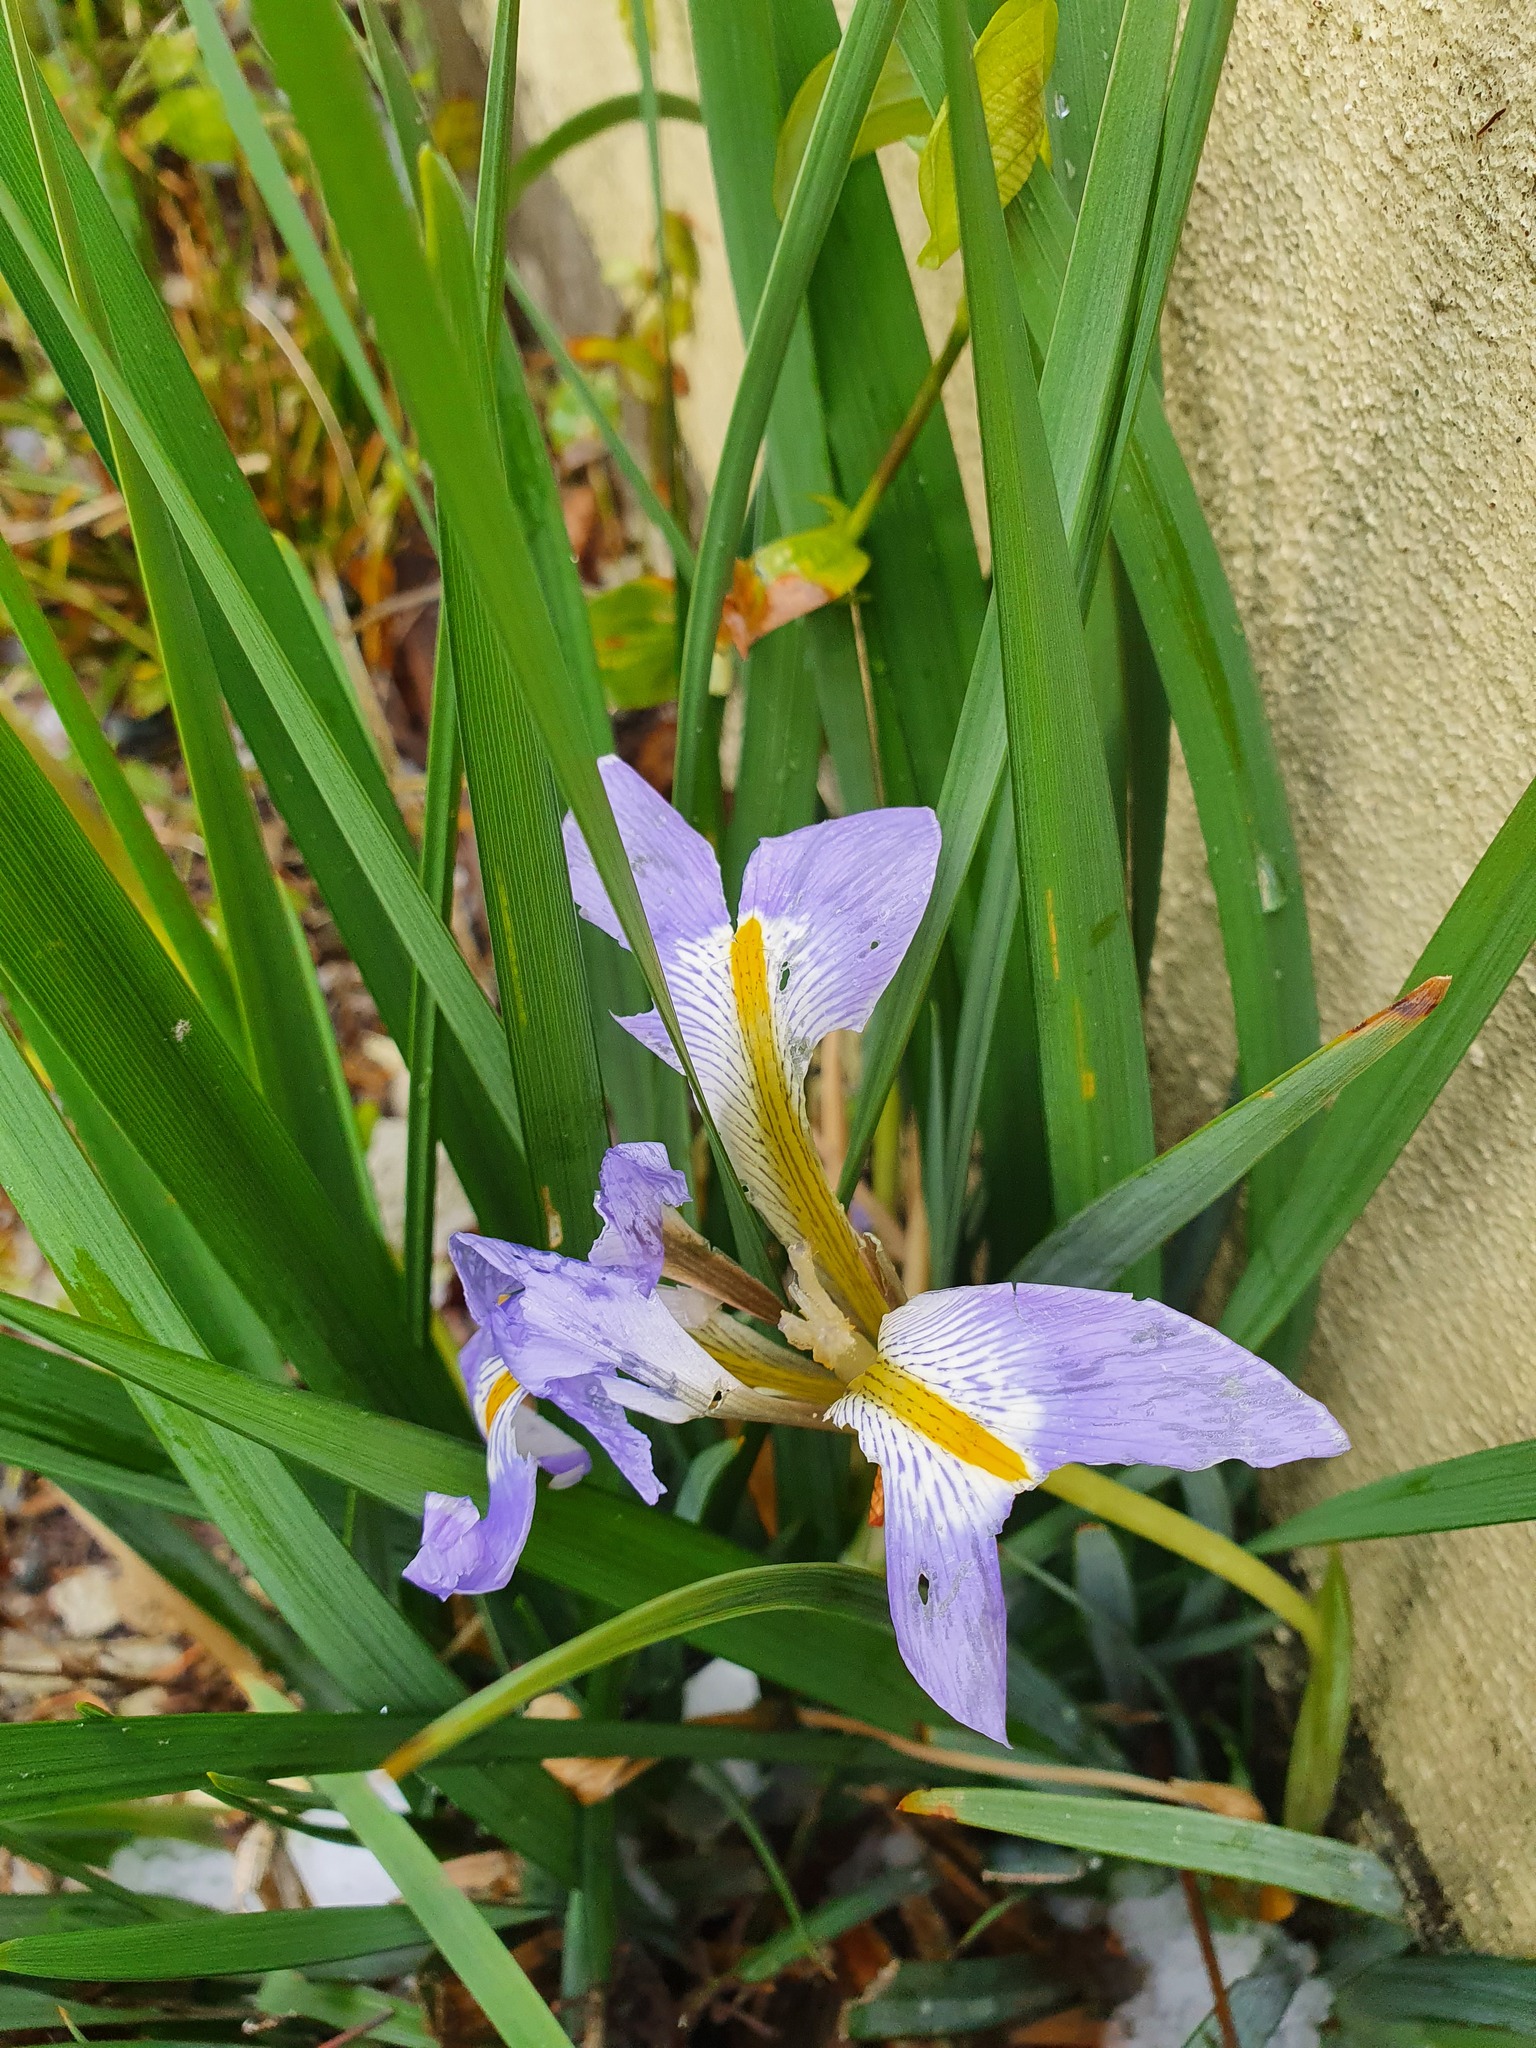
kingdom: Plantae
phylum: Tracheophyta
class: Liliopsida
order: Asparagales
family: Iridaceae
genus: Iris
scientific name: Iris lazica
